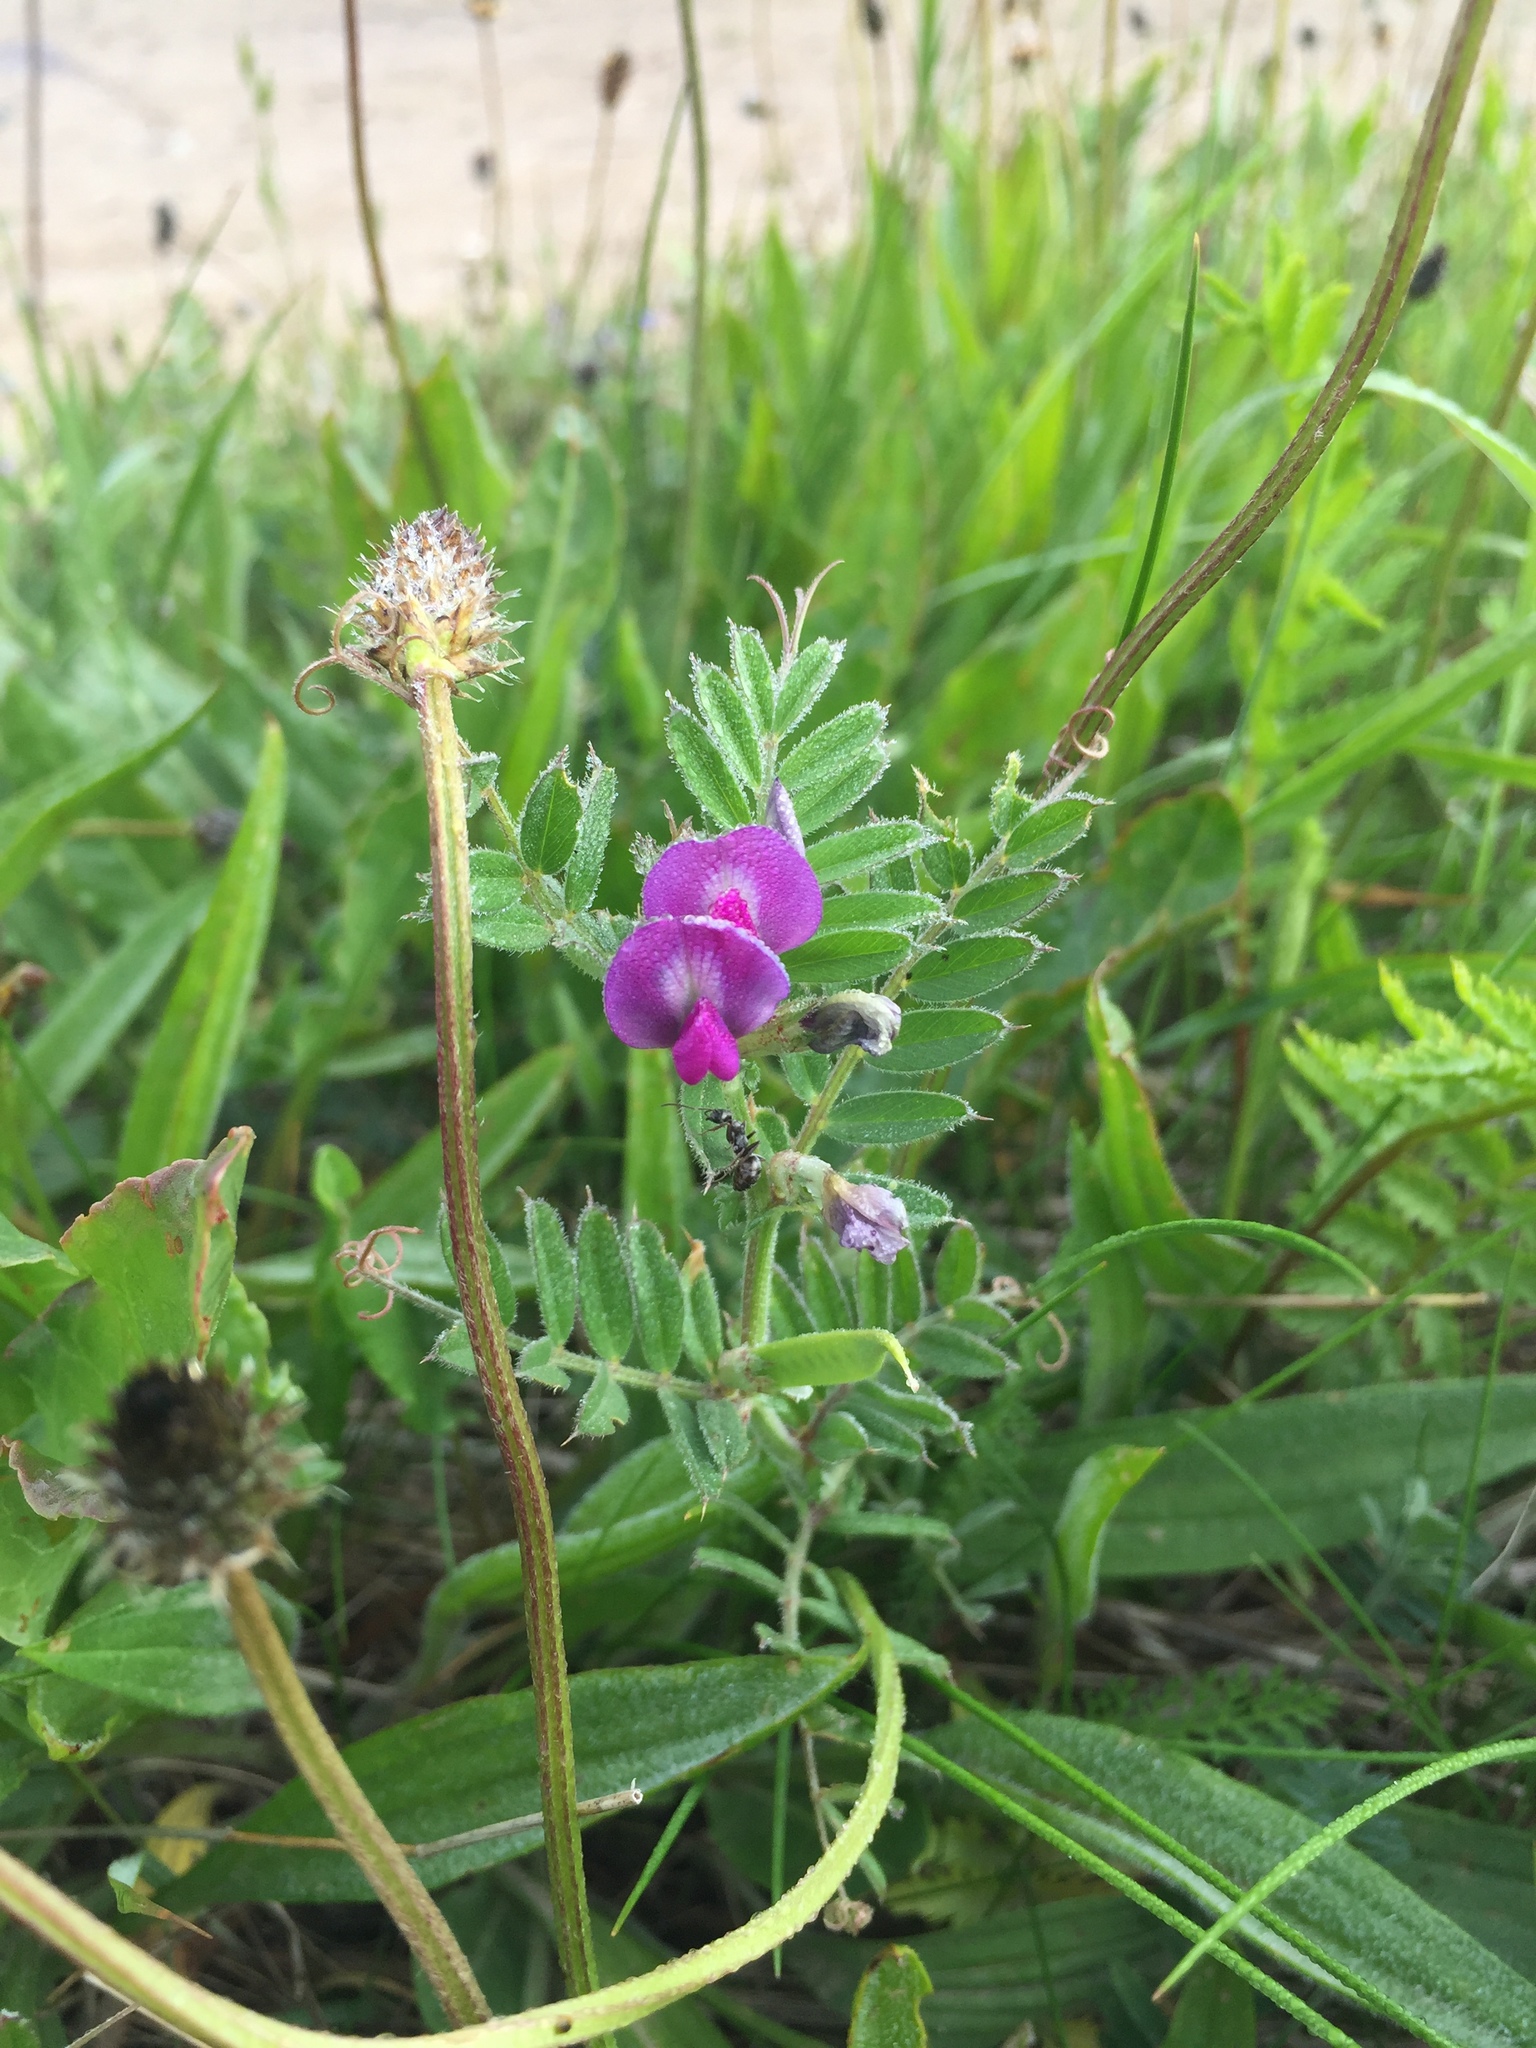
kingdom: Plantae
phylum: Tracheophyta
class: Magnoliopsida
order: Fabales
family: Fabaceae
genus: Vicia
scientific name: Vicia sativa
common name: Garden vetch
